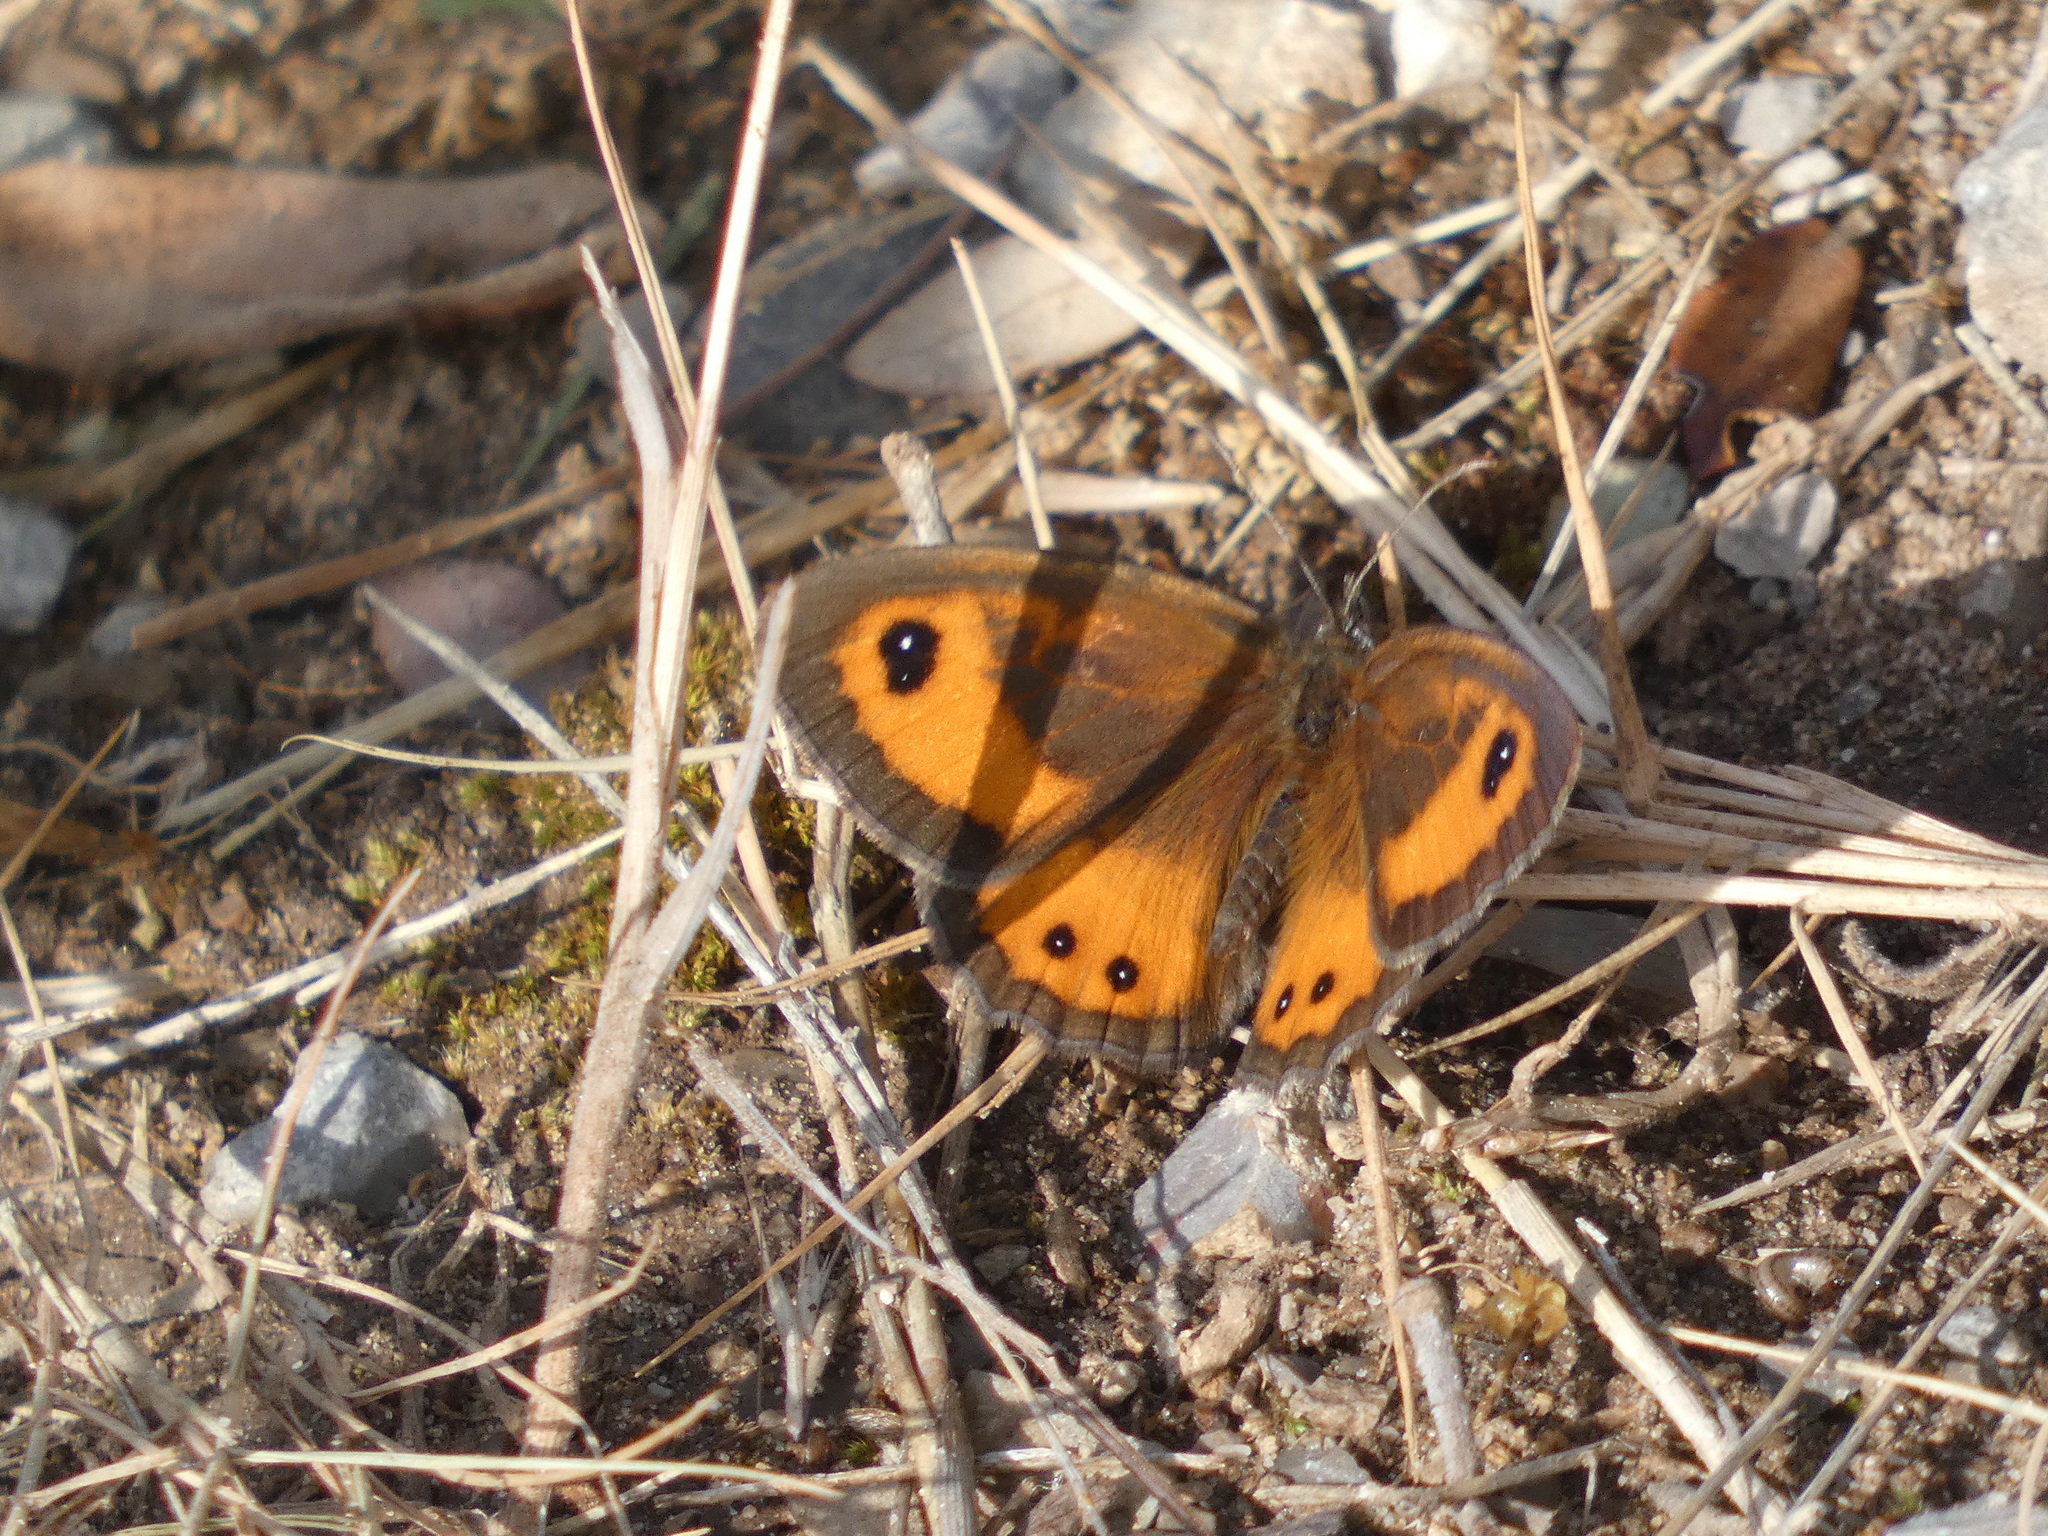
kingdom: Animalia
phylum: Arthropoda
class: Insecta
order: Lepidoptera
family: Nymphalidae
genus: Pyronia
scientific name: Pyronia bathseba
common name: Spanish gatekeeper
